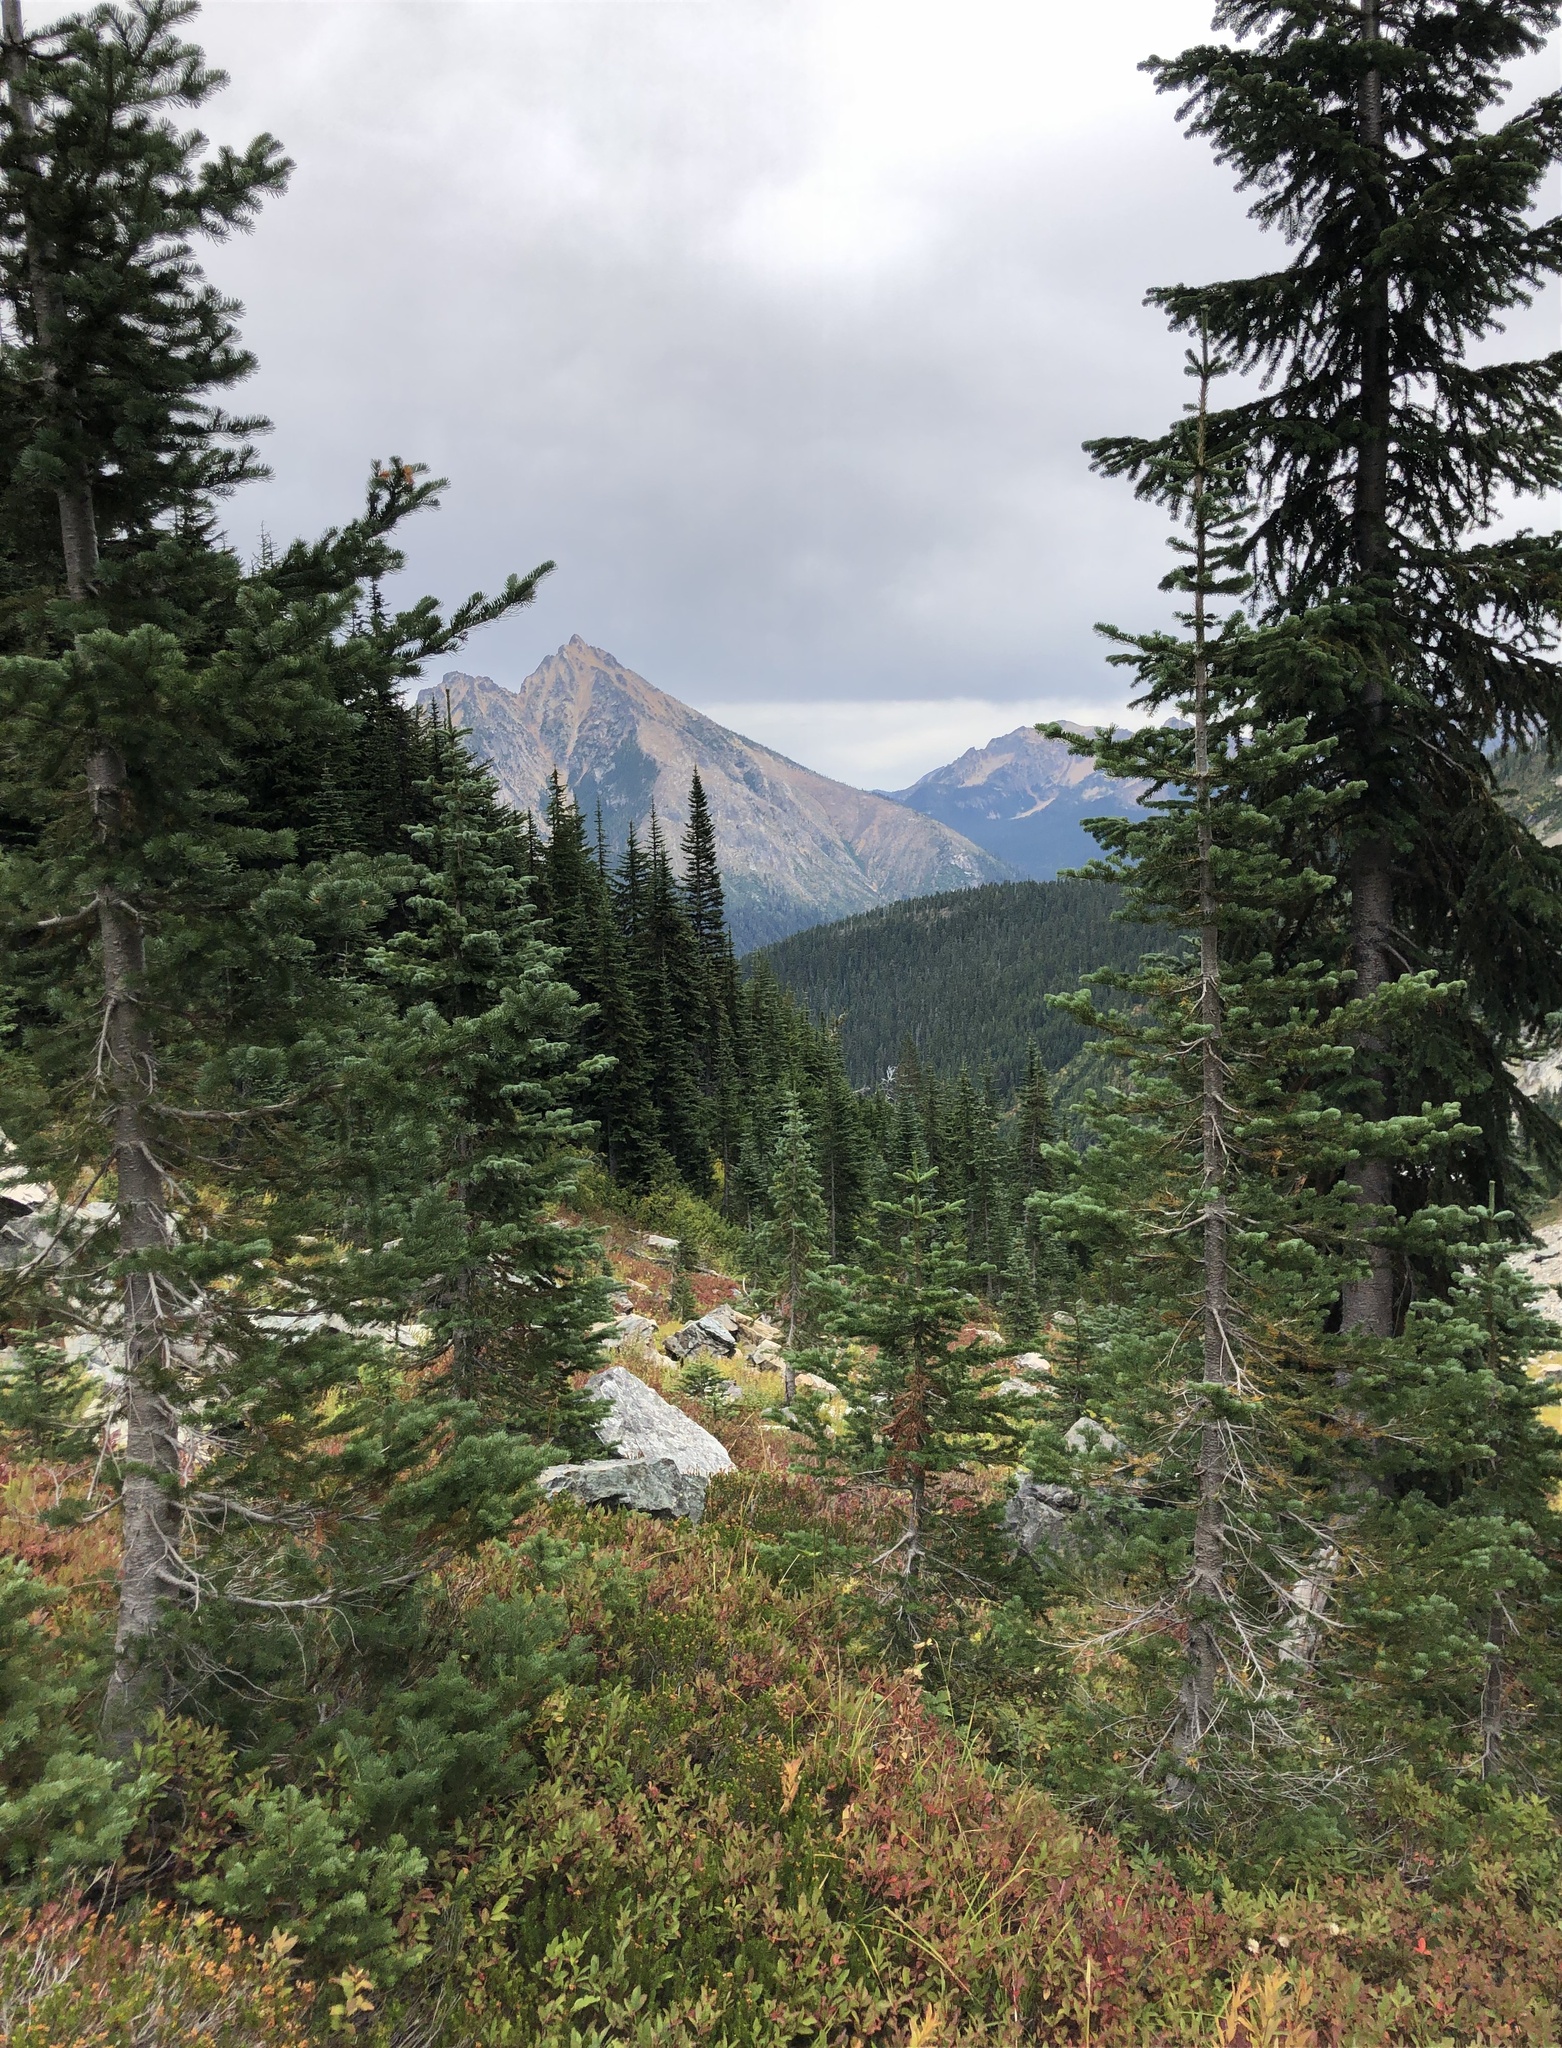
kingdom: Plantae
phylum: Tracheophyta
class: Pinopsida
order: Pinales
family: Pinaceae
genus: Abies
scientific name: Abies lasiocarpa
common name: Subalpine fir
